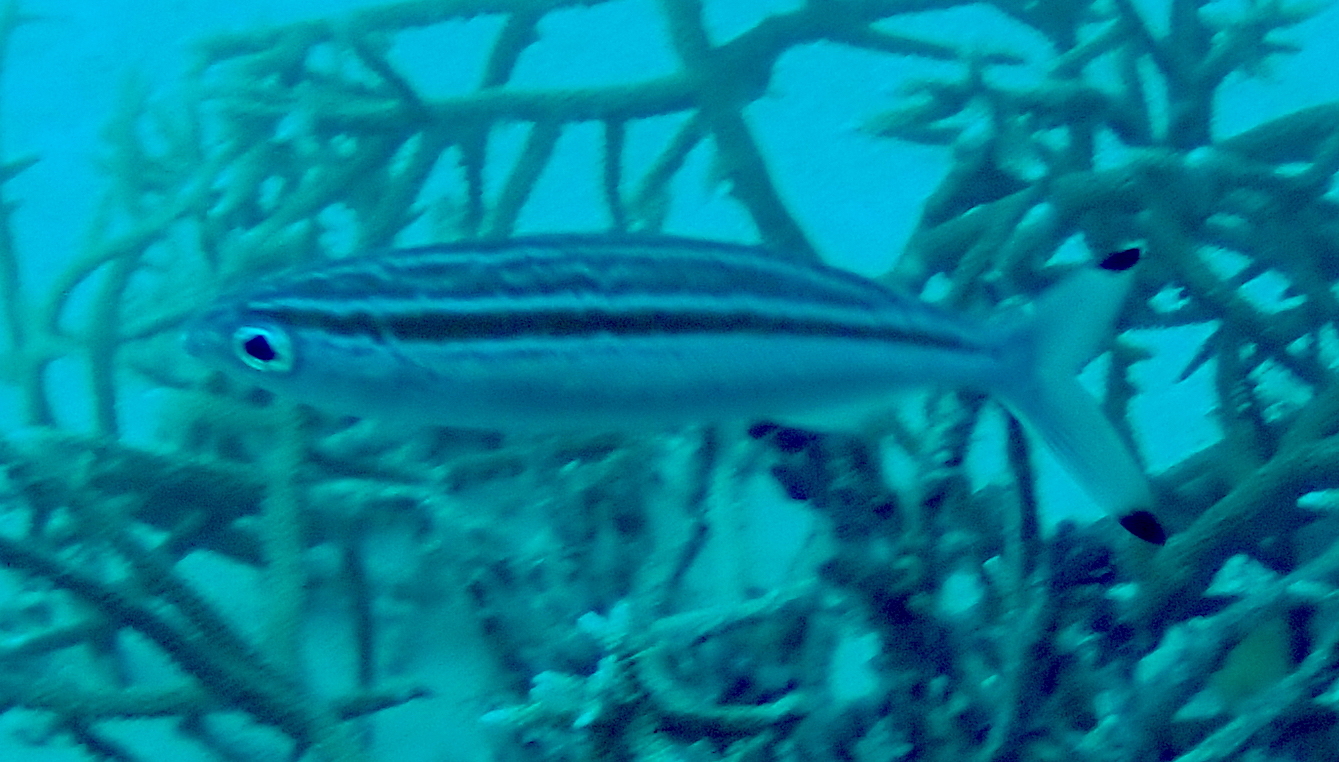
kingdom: Animalia
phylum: Chordata
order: Perciformes
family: Caesionidae
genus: Pterocaesio
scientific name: Pterocaesio trilineata
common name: Striped fusilier
